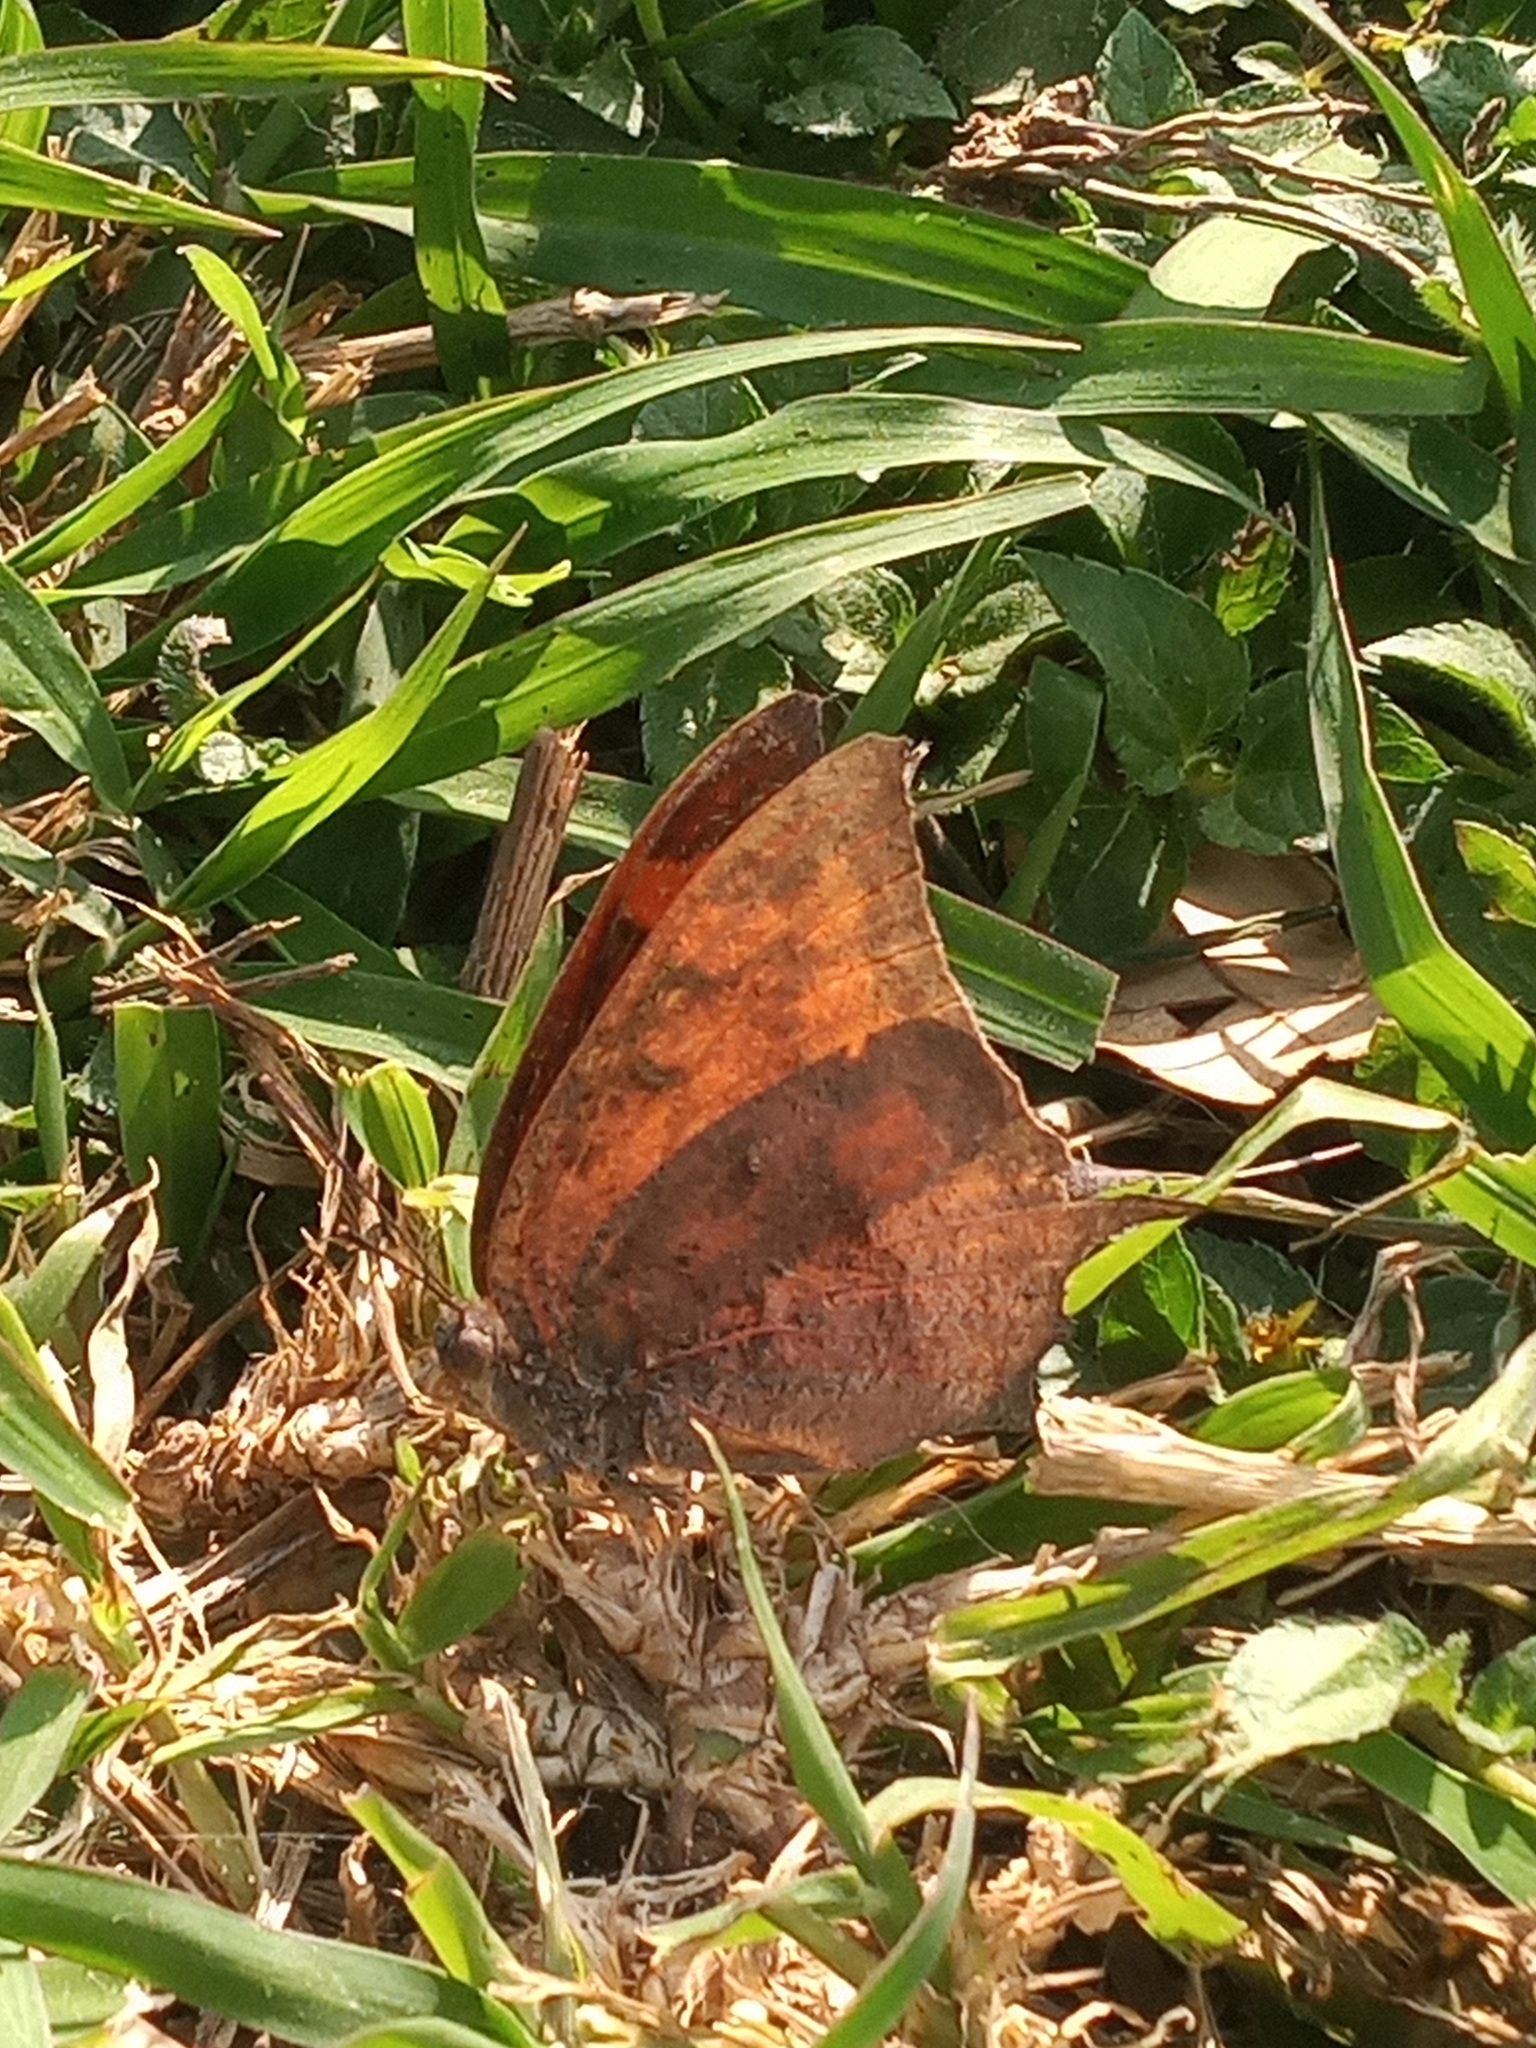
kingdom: Animalia
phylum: Arthropoda
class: Insecta
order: Lepidoptera
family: Nymphalidae
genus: Anaea
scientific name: Anaea aidea
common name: Tropical leafwing
